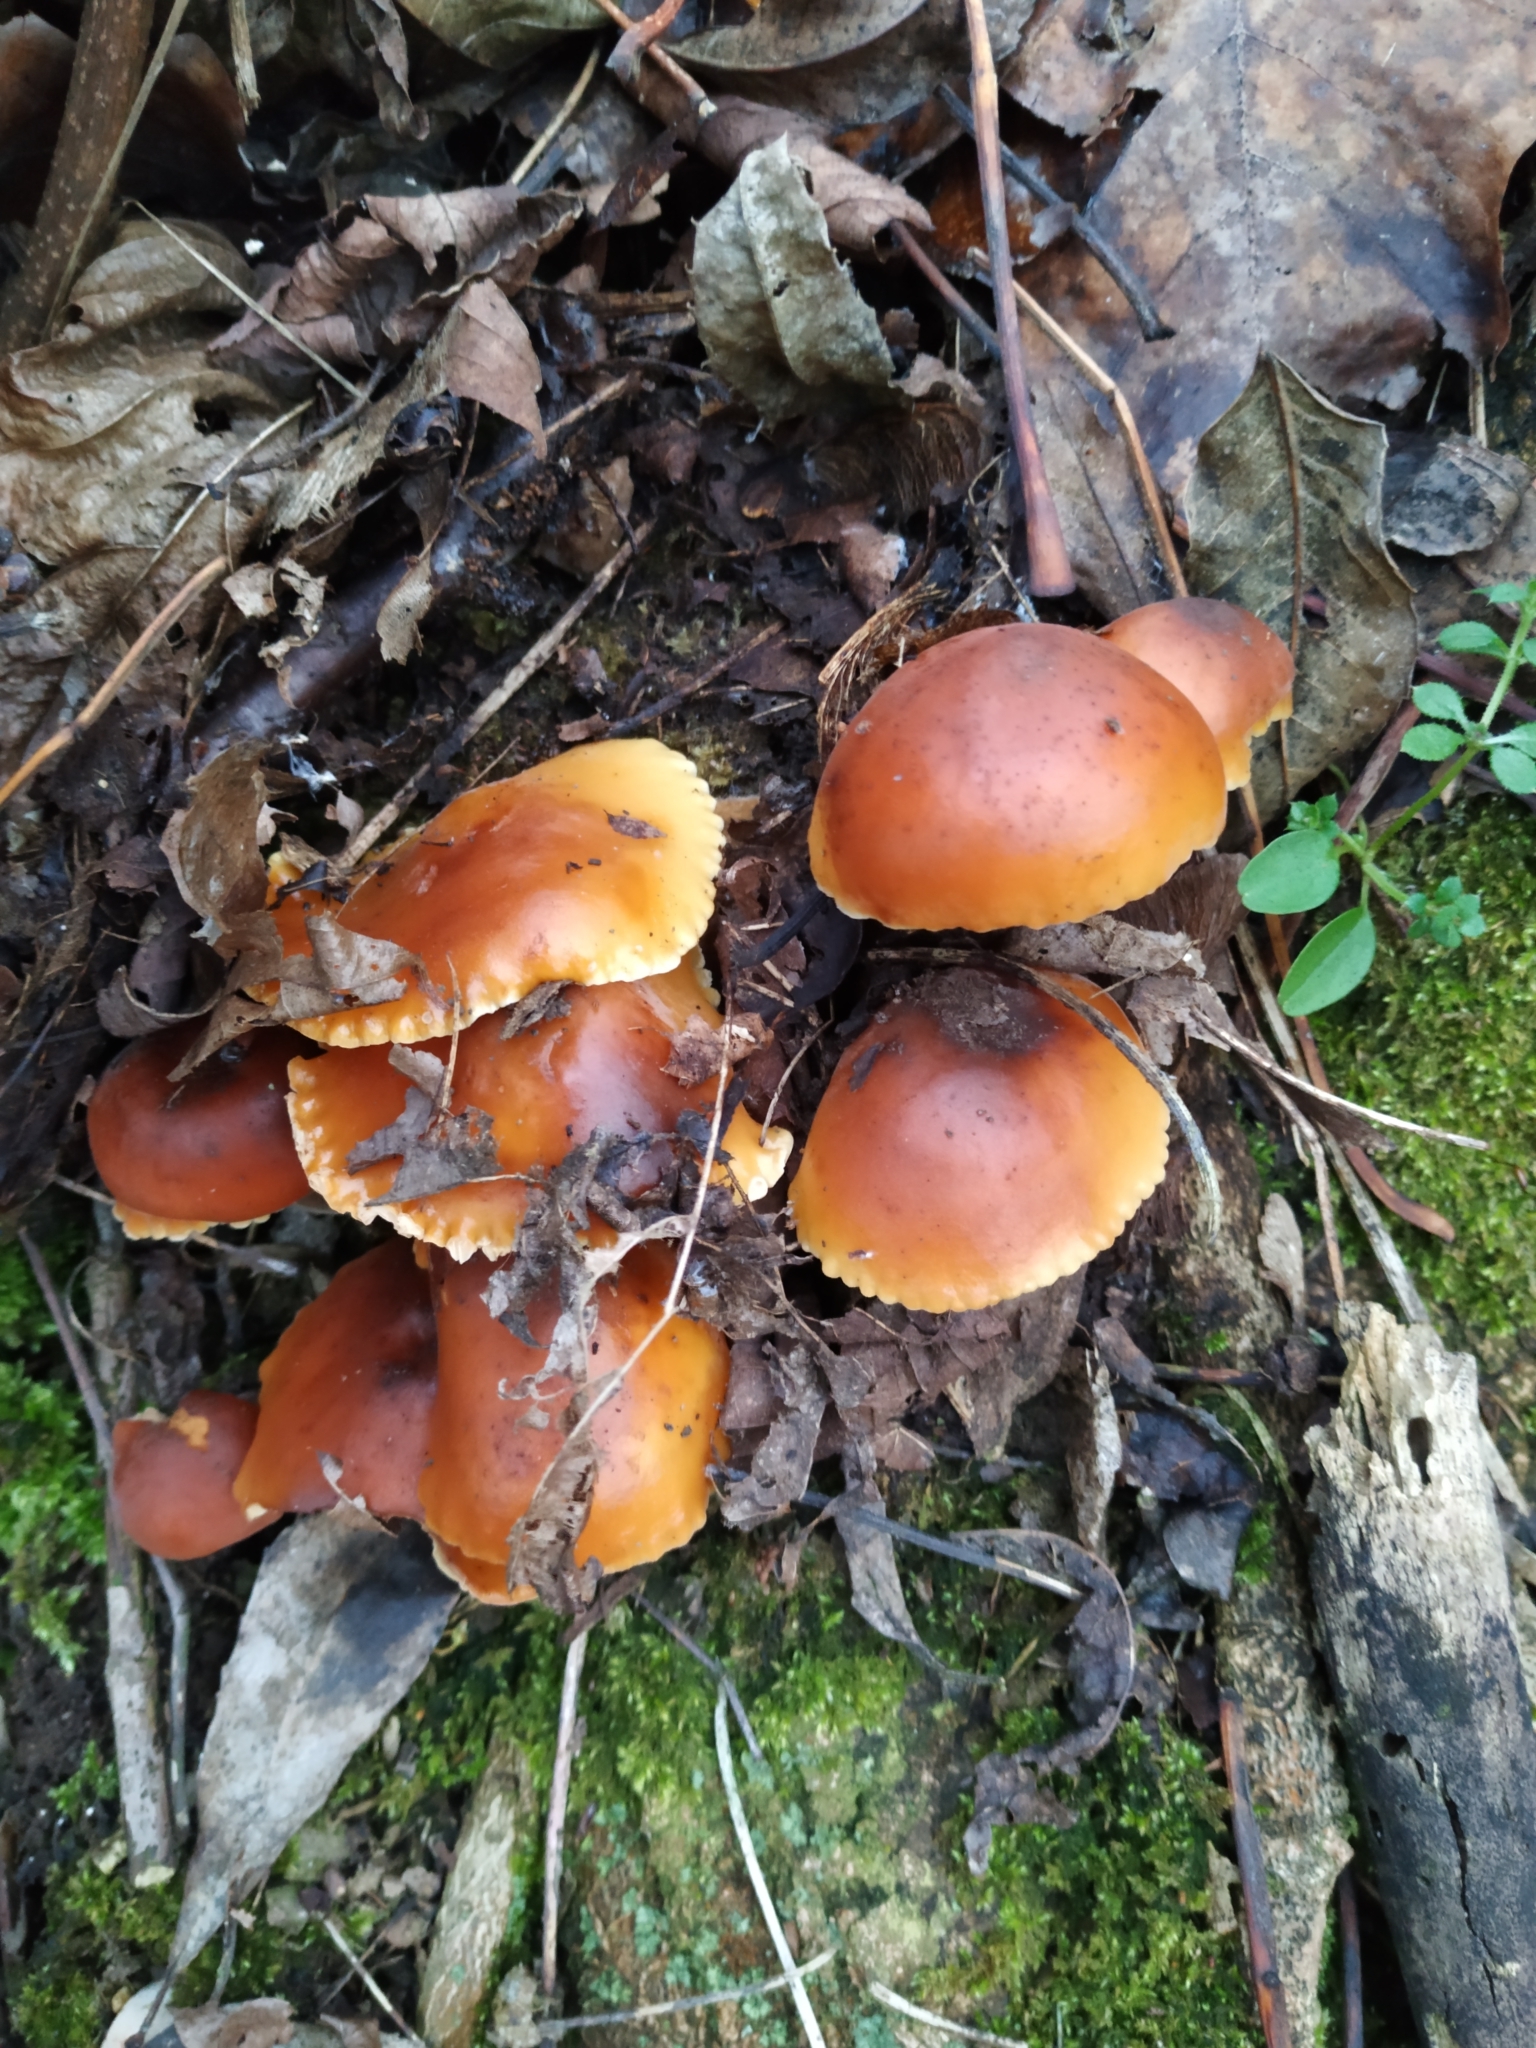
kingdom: Fungi
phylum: Basidiomycota
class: Agaricomycetes
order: Agaricales
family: Physalacriaceae
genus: Flammulina
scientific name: Flammulina
